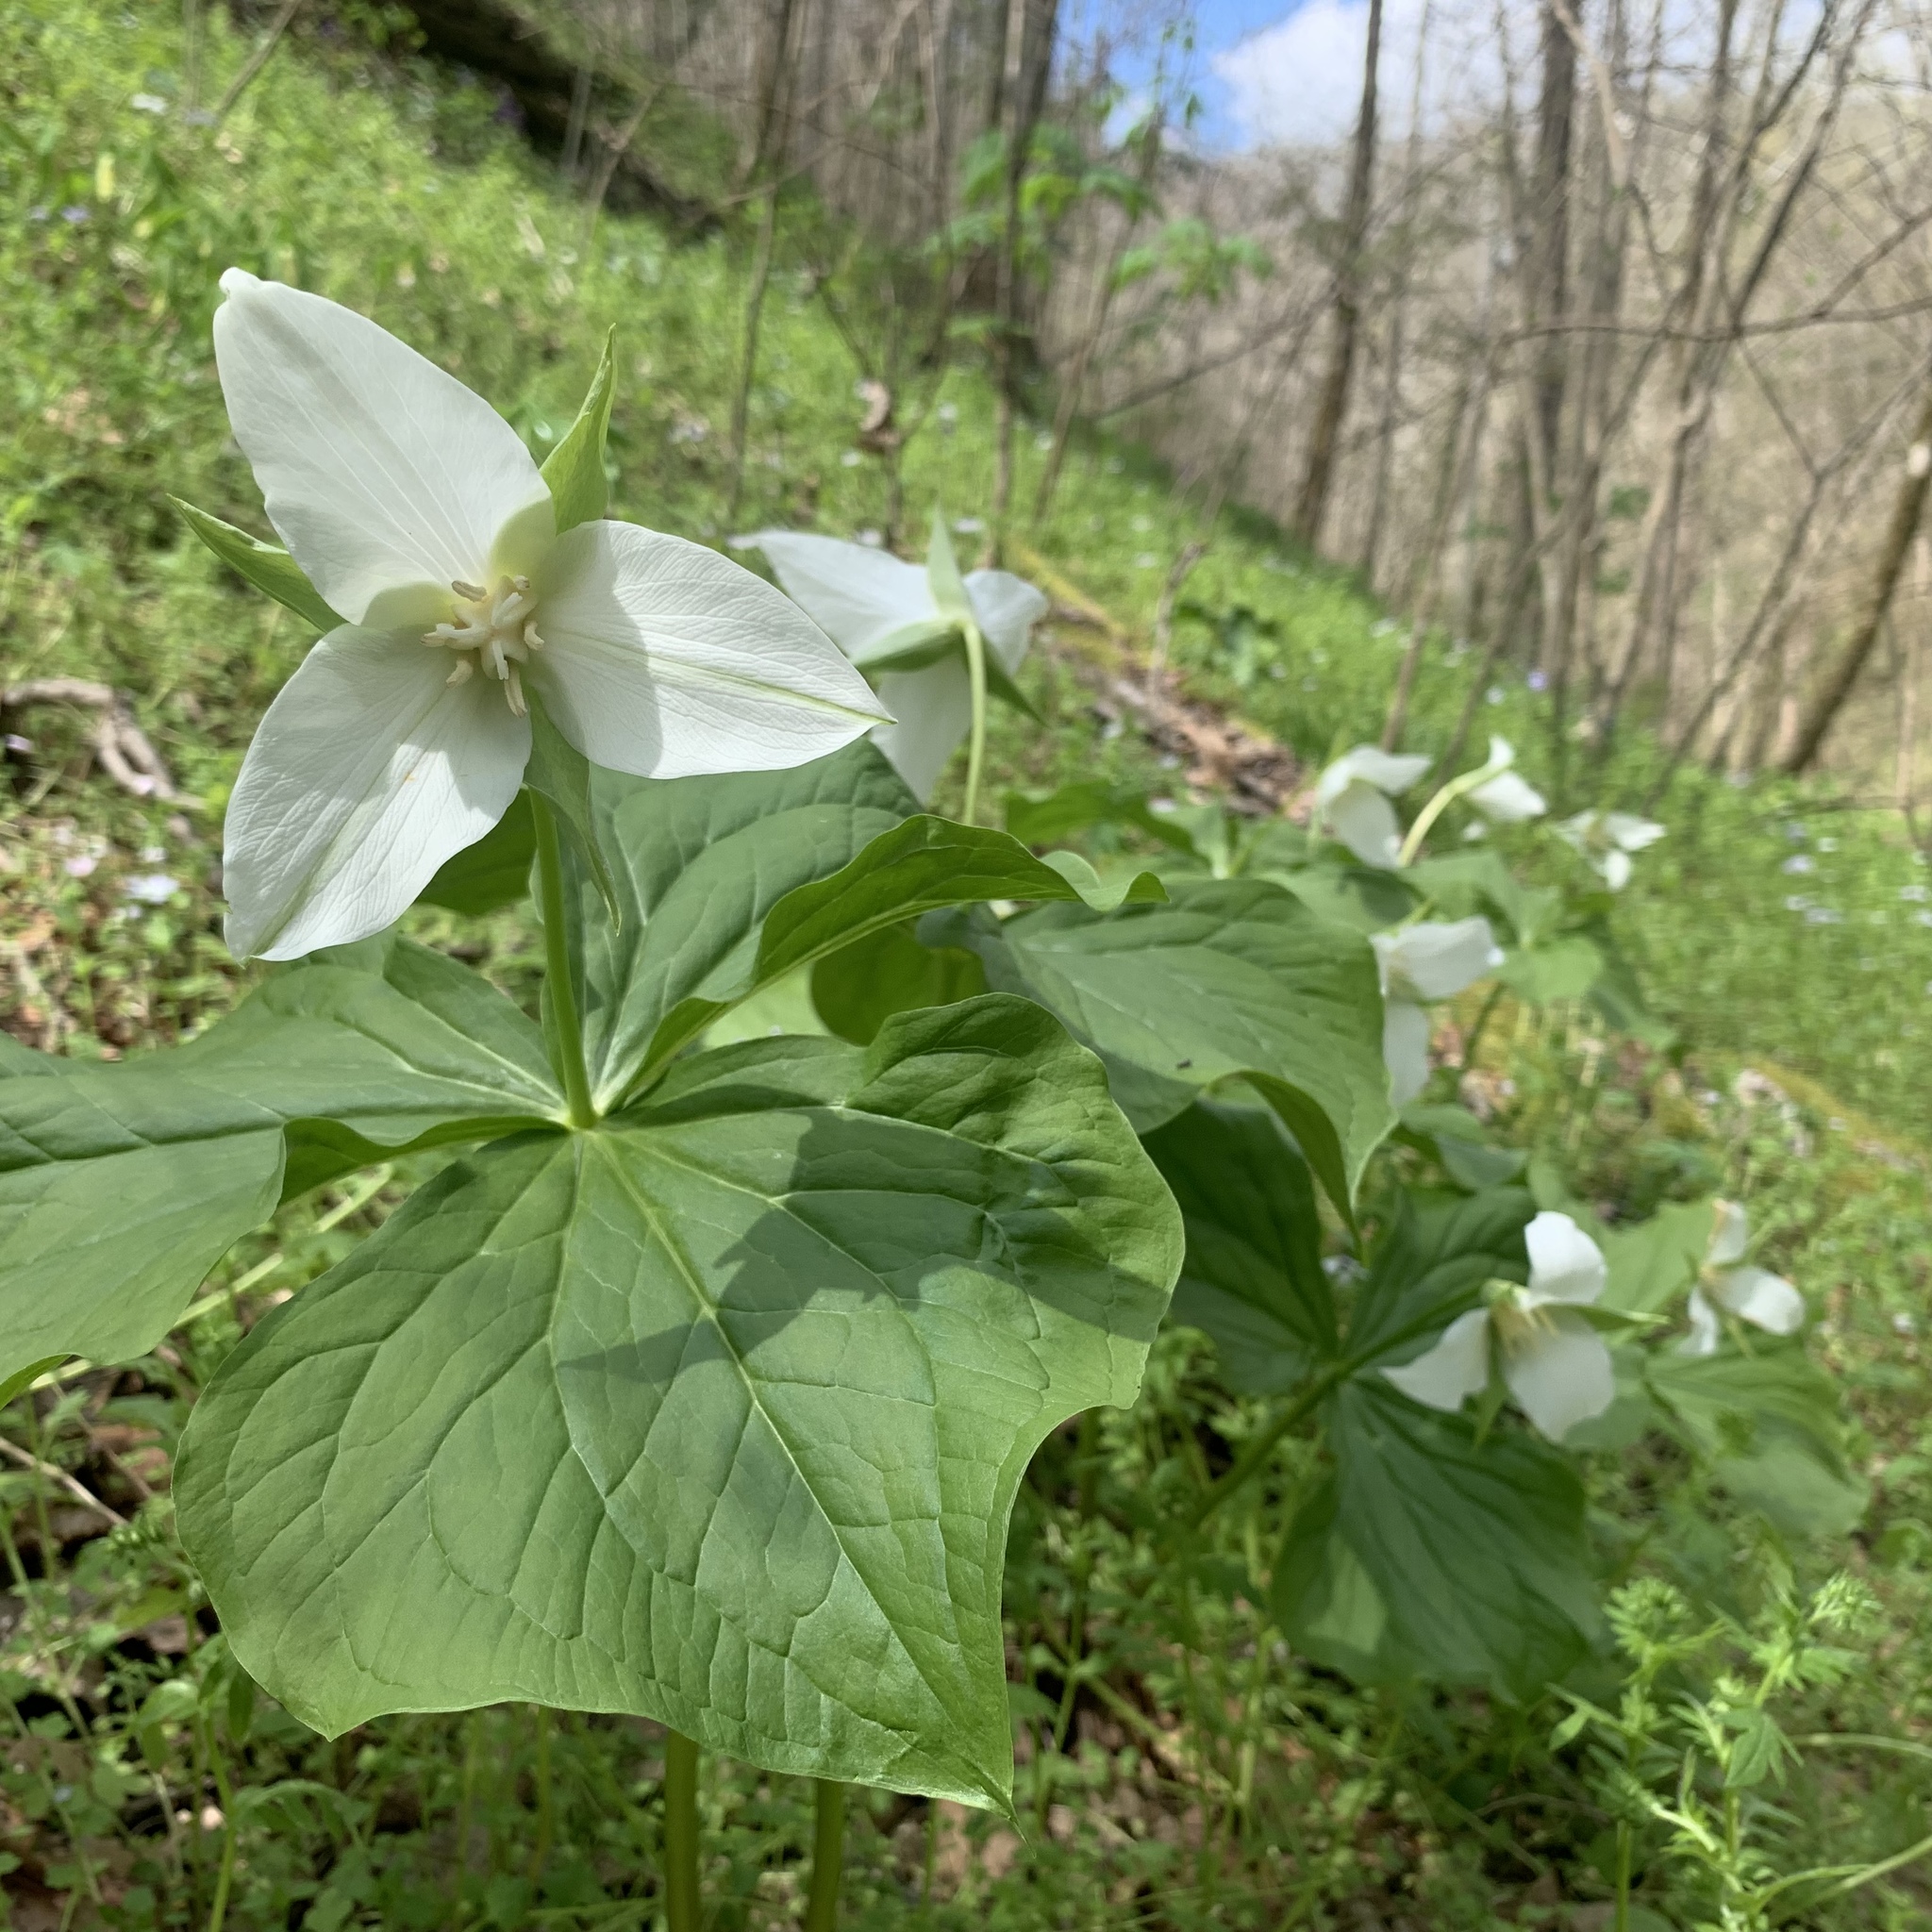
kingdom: Plantae
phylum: Tracheophyta
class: Liliopsida
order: Liliales
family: Melanthiaceae
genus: Trillium
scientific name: Trillium flexipes
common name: Drooping trillium
